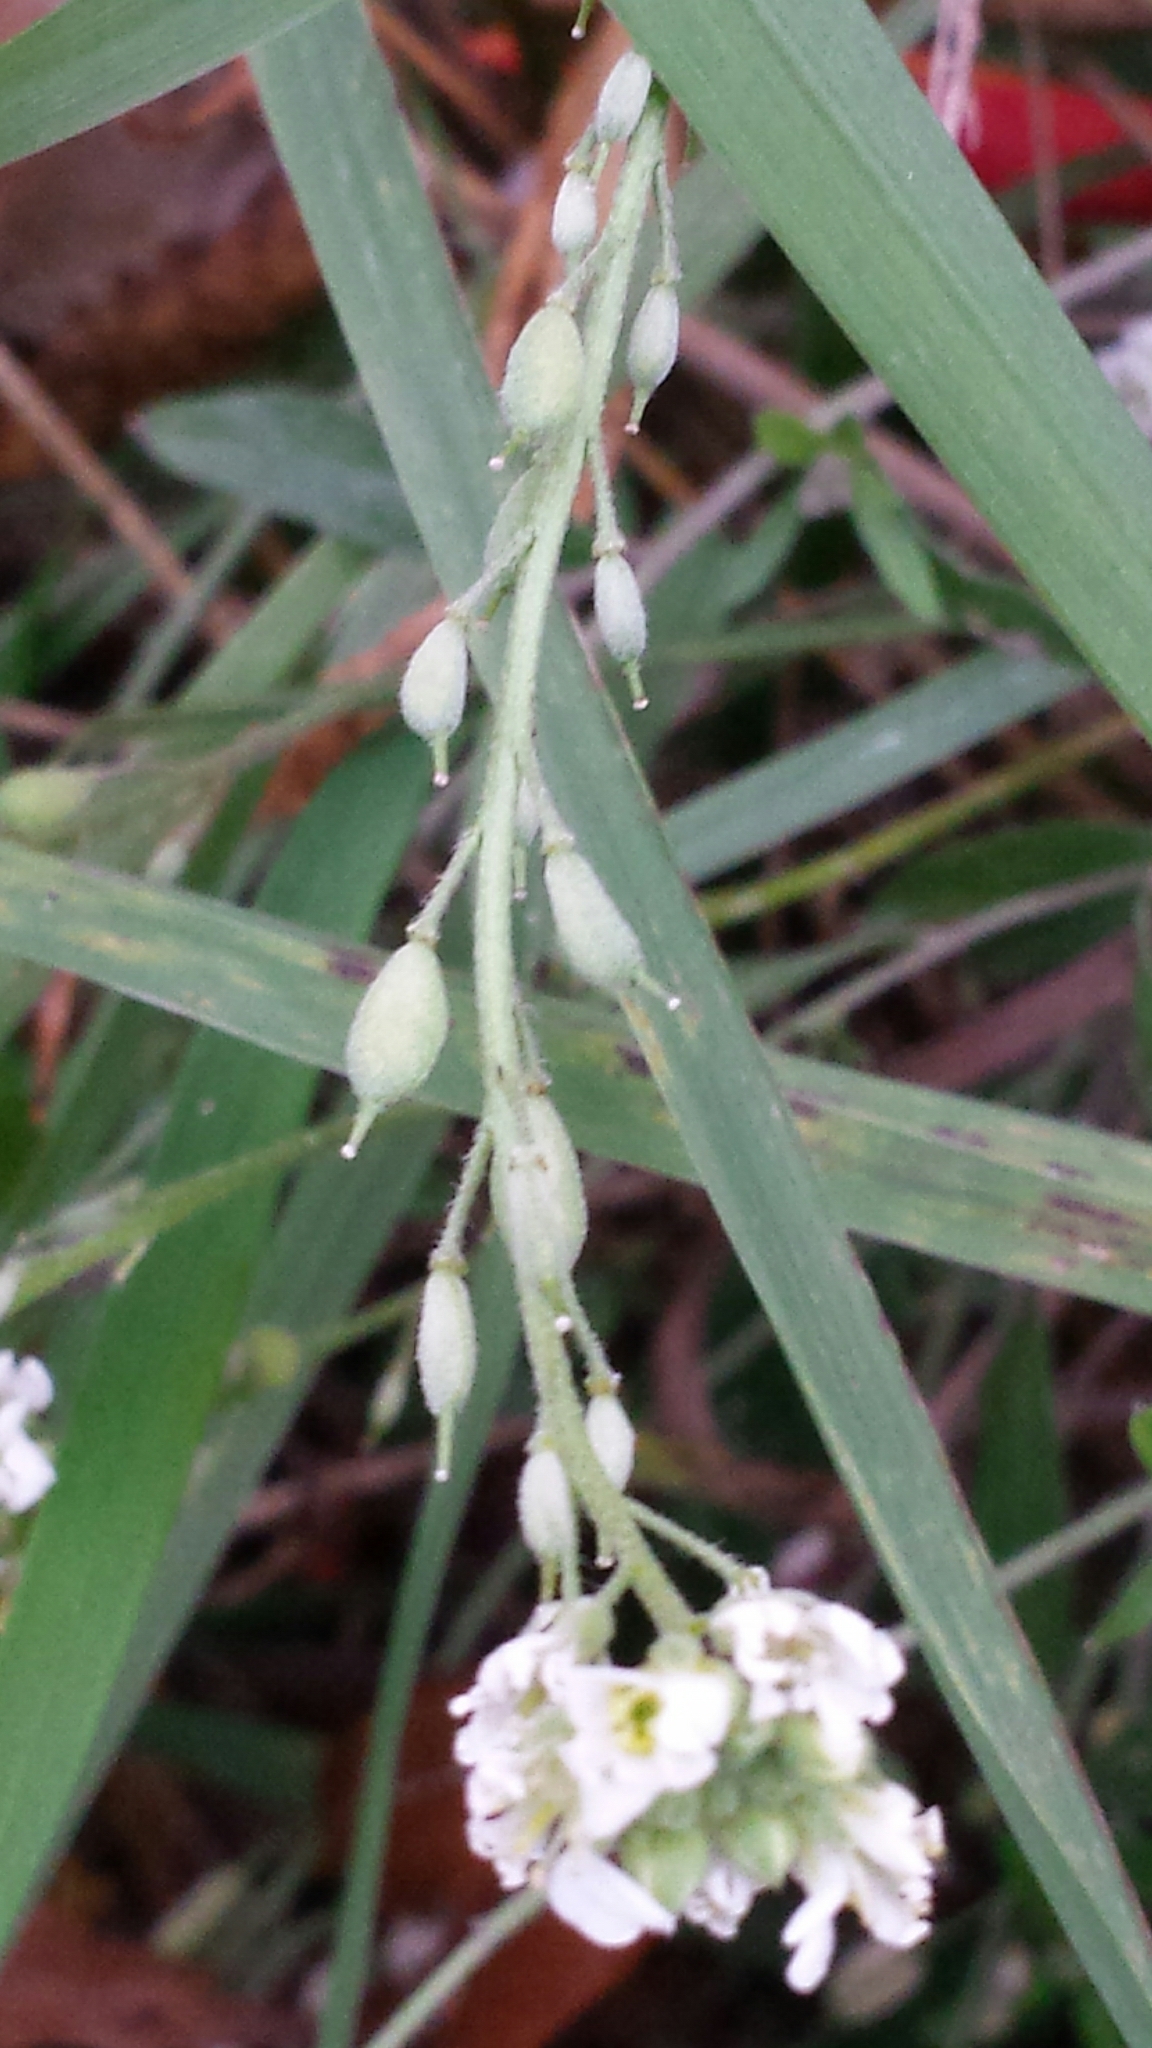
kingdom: Plantae
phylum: Tracheophyta
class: Magnoliopsida
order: Brassicales
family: Brassicaceae
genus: Berteroa
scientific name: Berteroa incana
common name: Hoary alison
